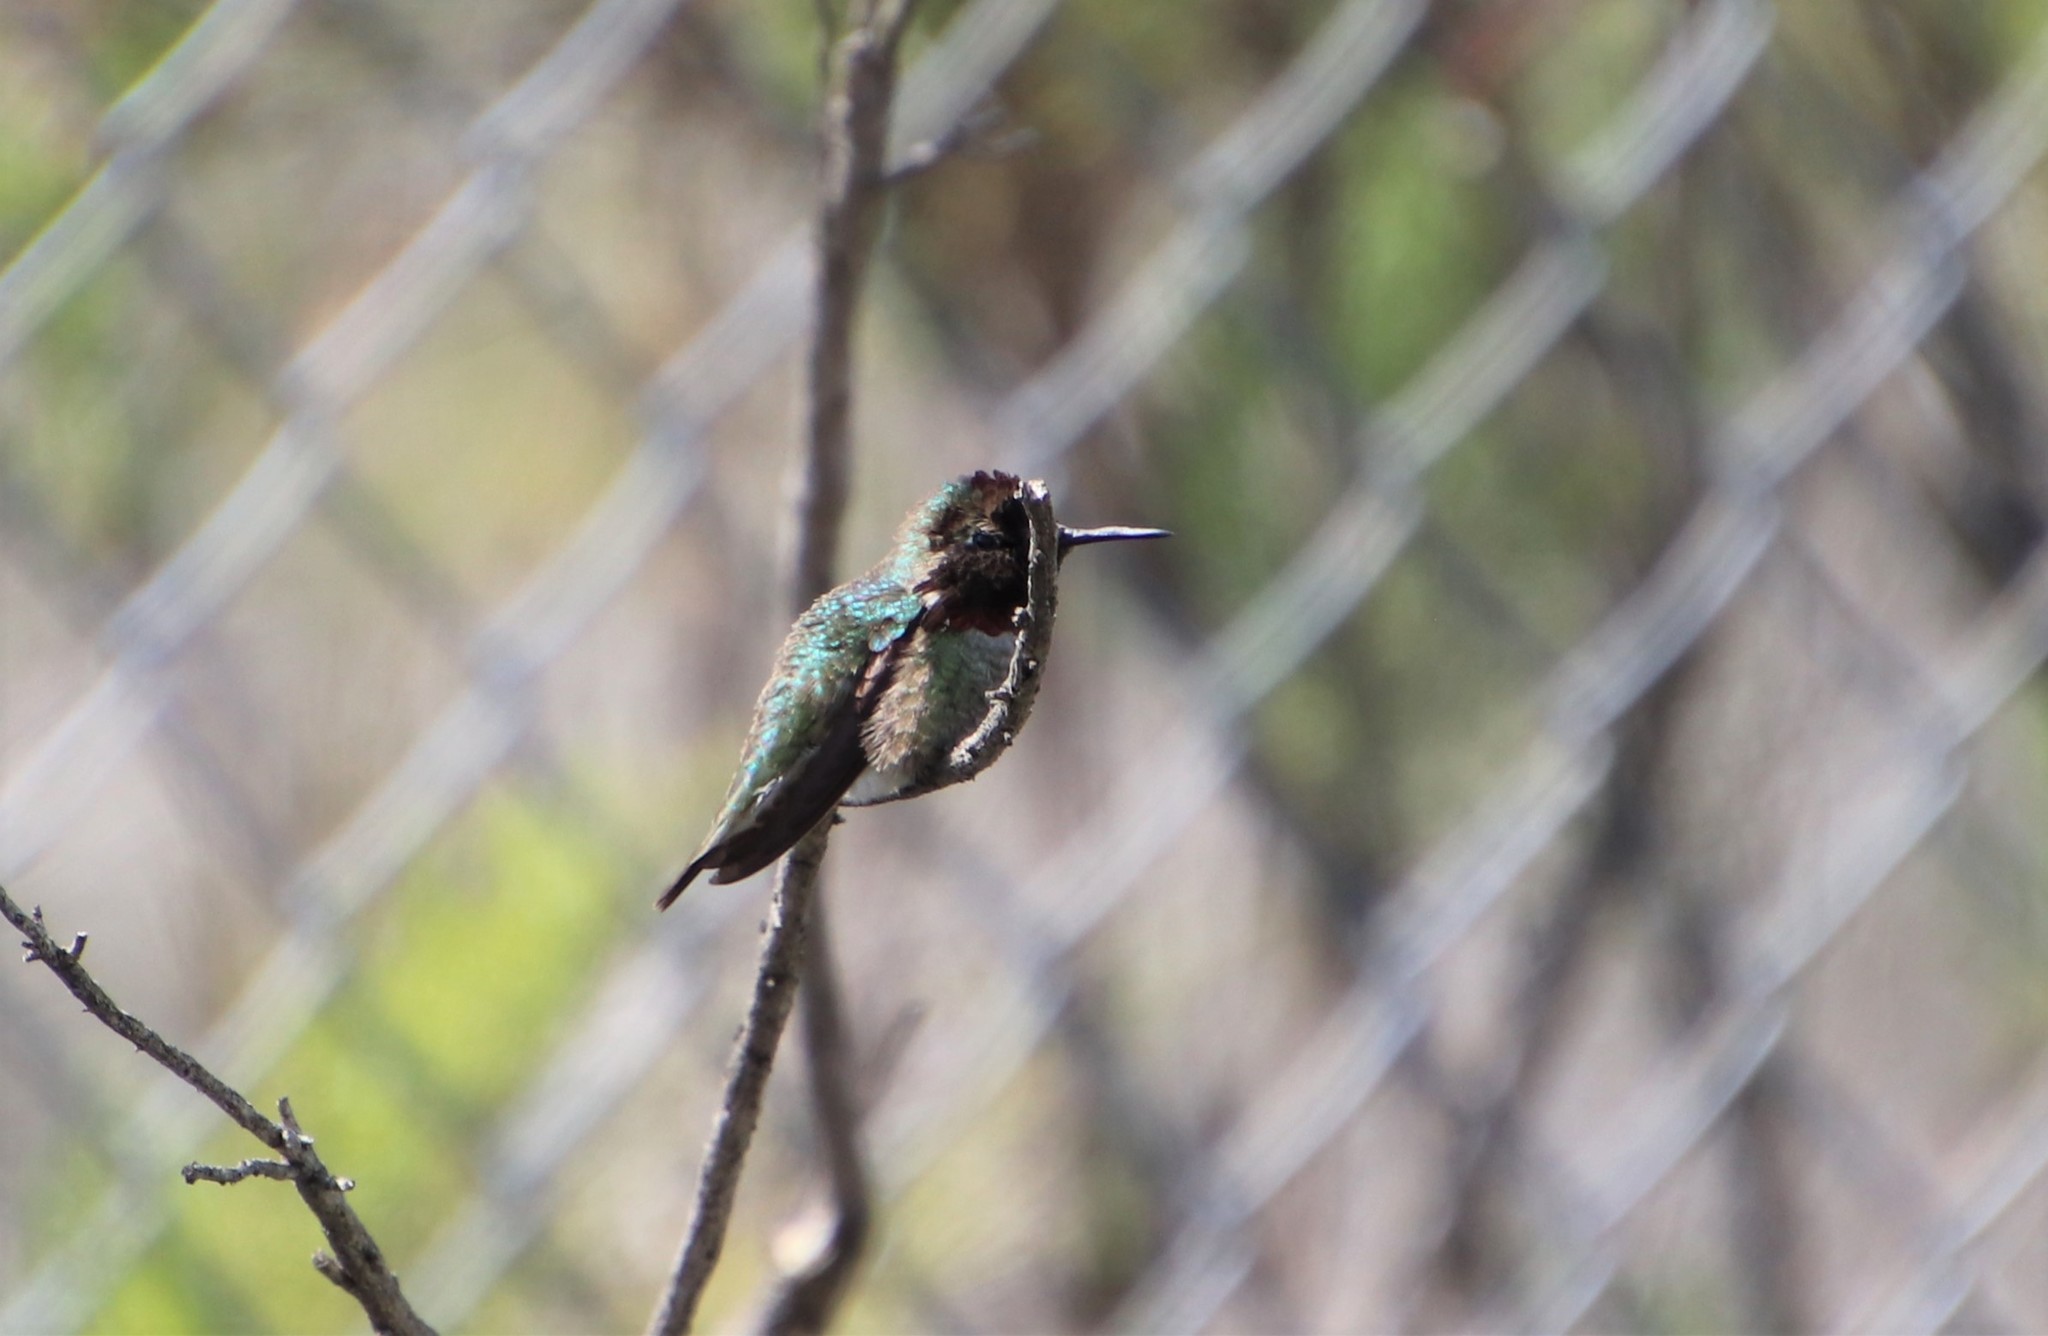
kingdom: Animalia
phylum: Chordata
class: Aves
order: Apodiformes
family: Trochilidae
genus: Calypte
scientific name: Calypte anna
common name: Anna's hummingbird
